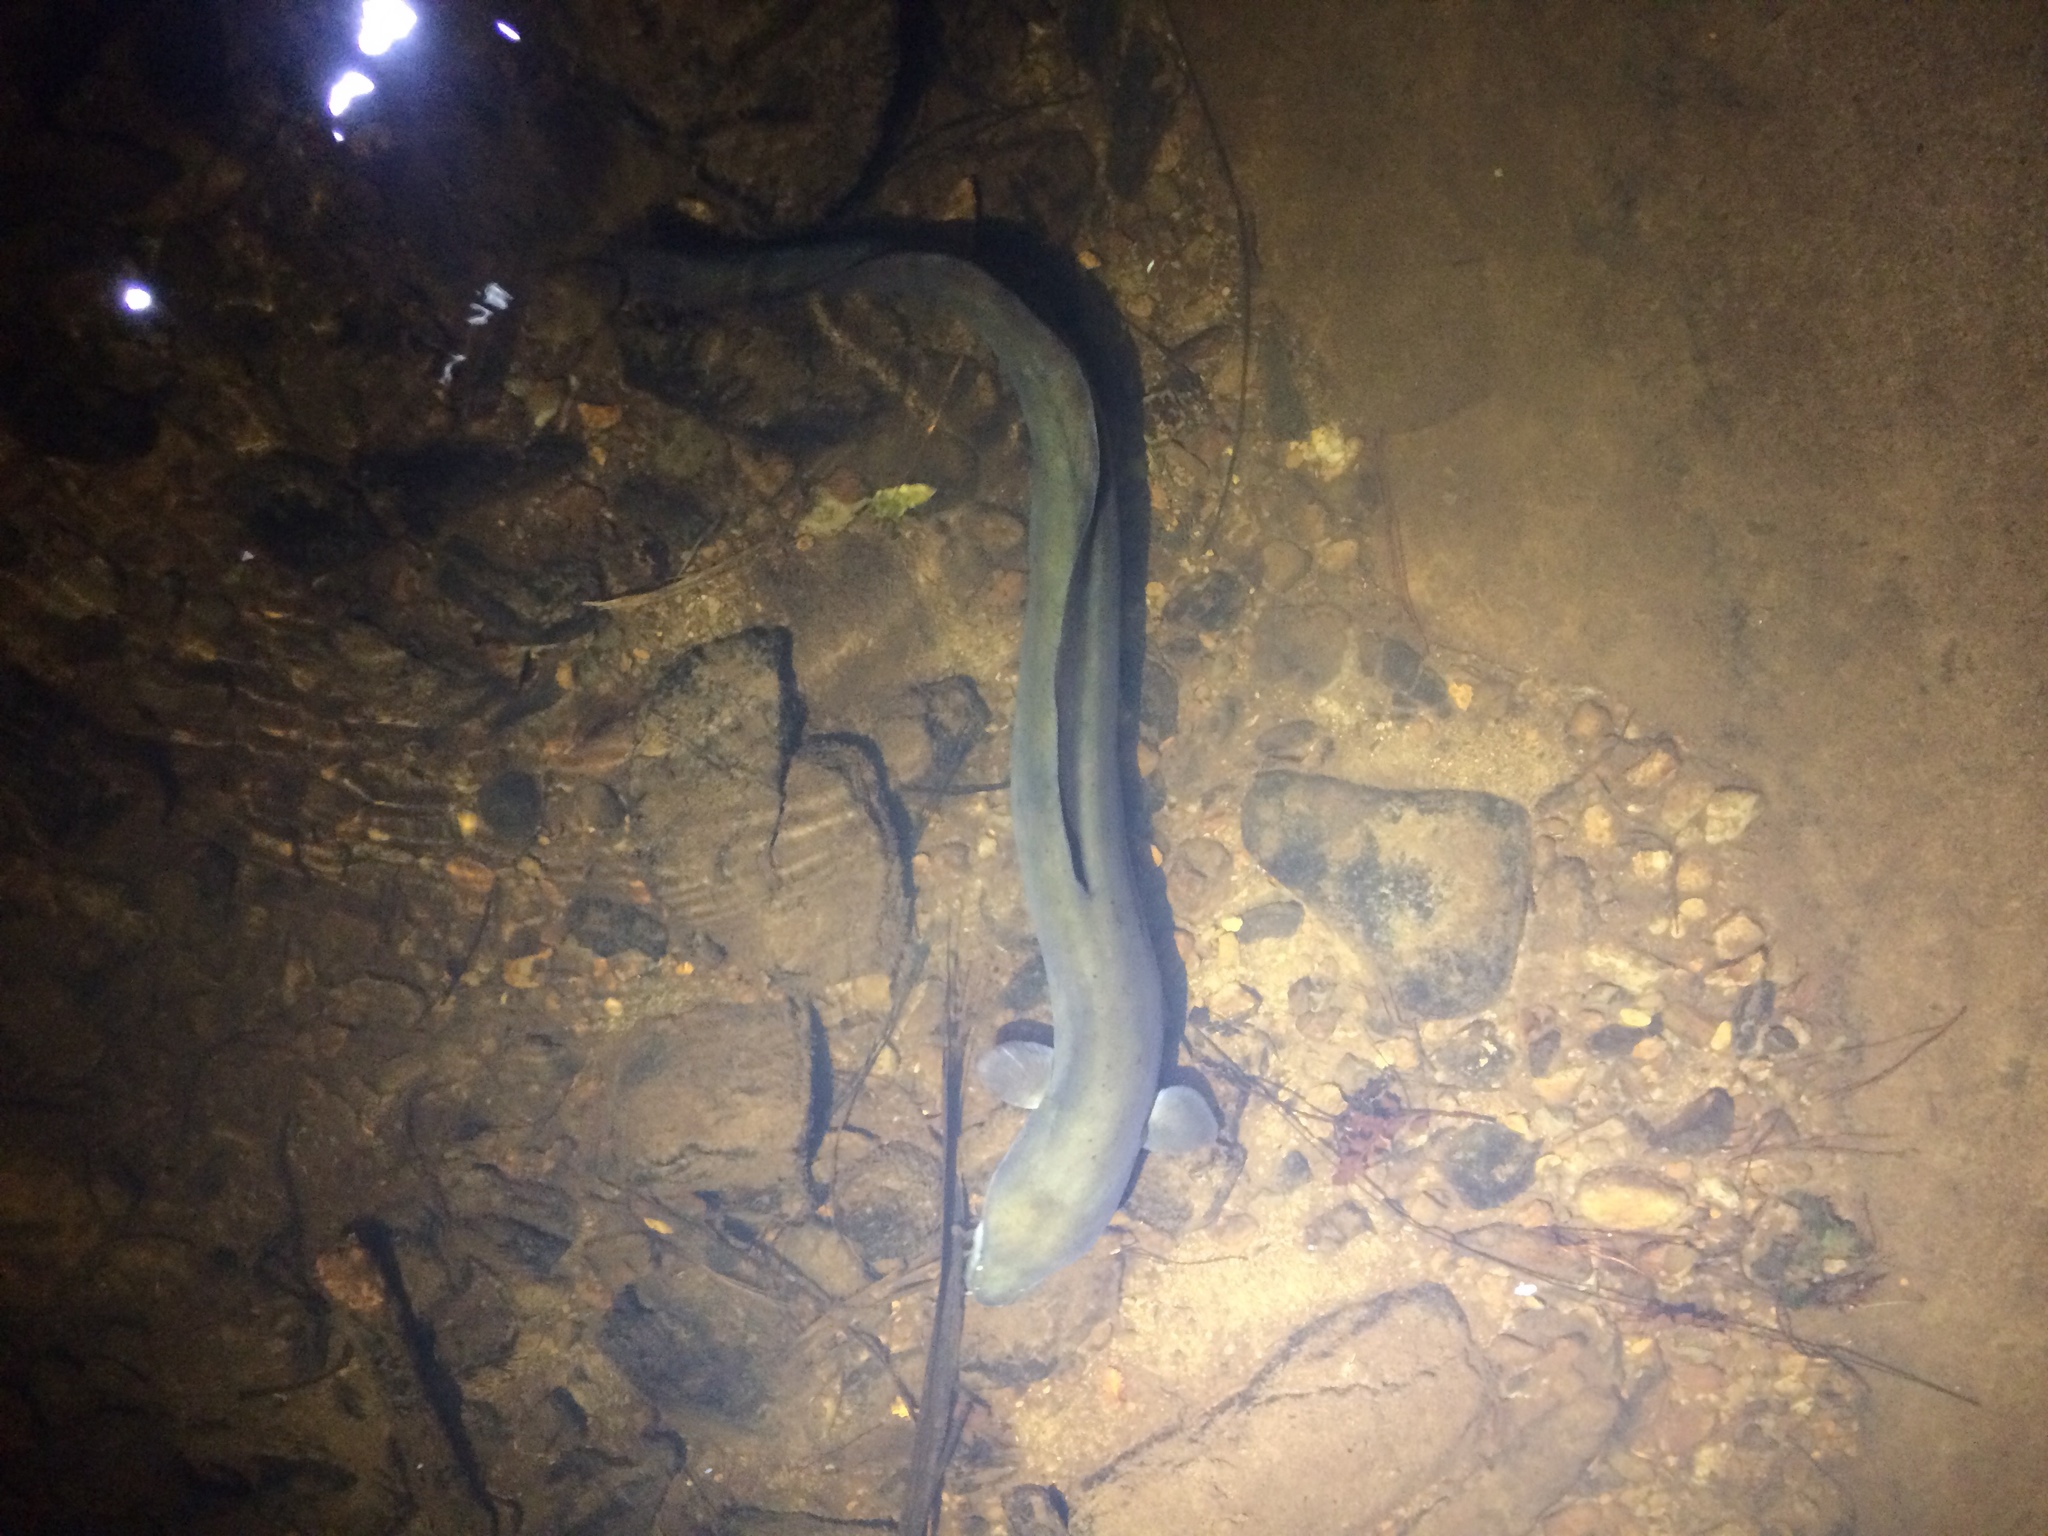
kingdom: Animalia
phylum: Chordata
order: Anguilliformes
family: Anguillidae
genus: Anguilla
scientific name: Anguilla dieffenbachii
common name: New zealand longfin eel
